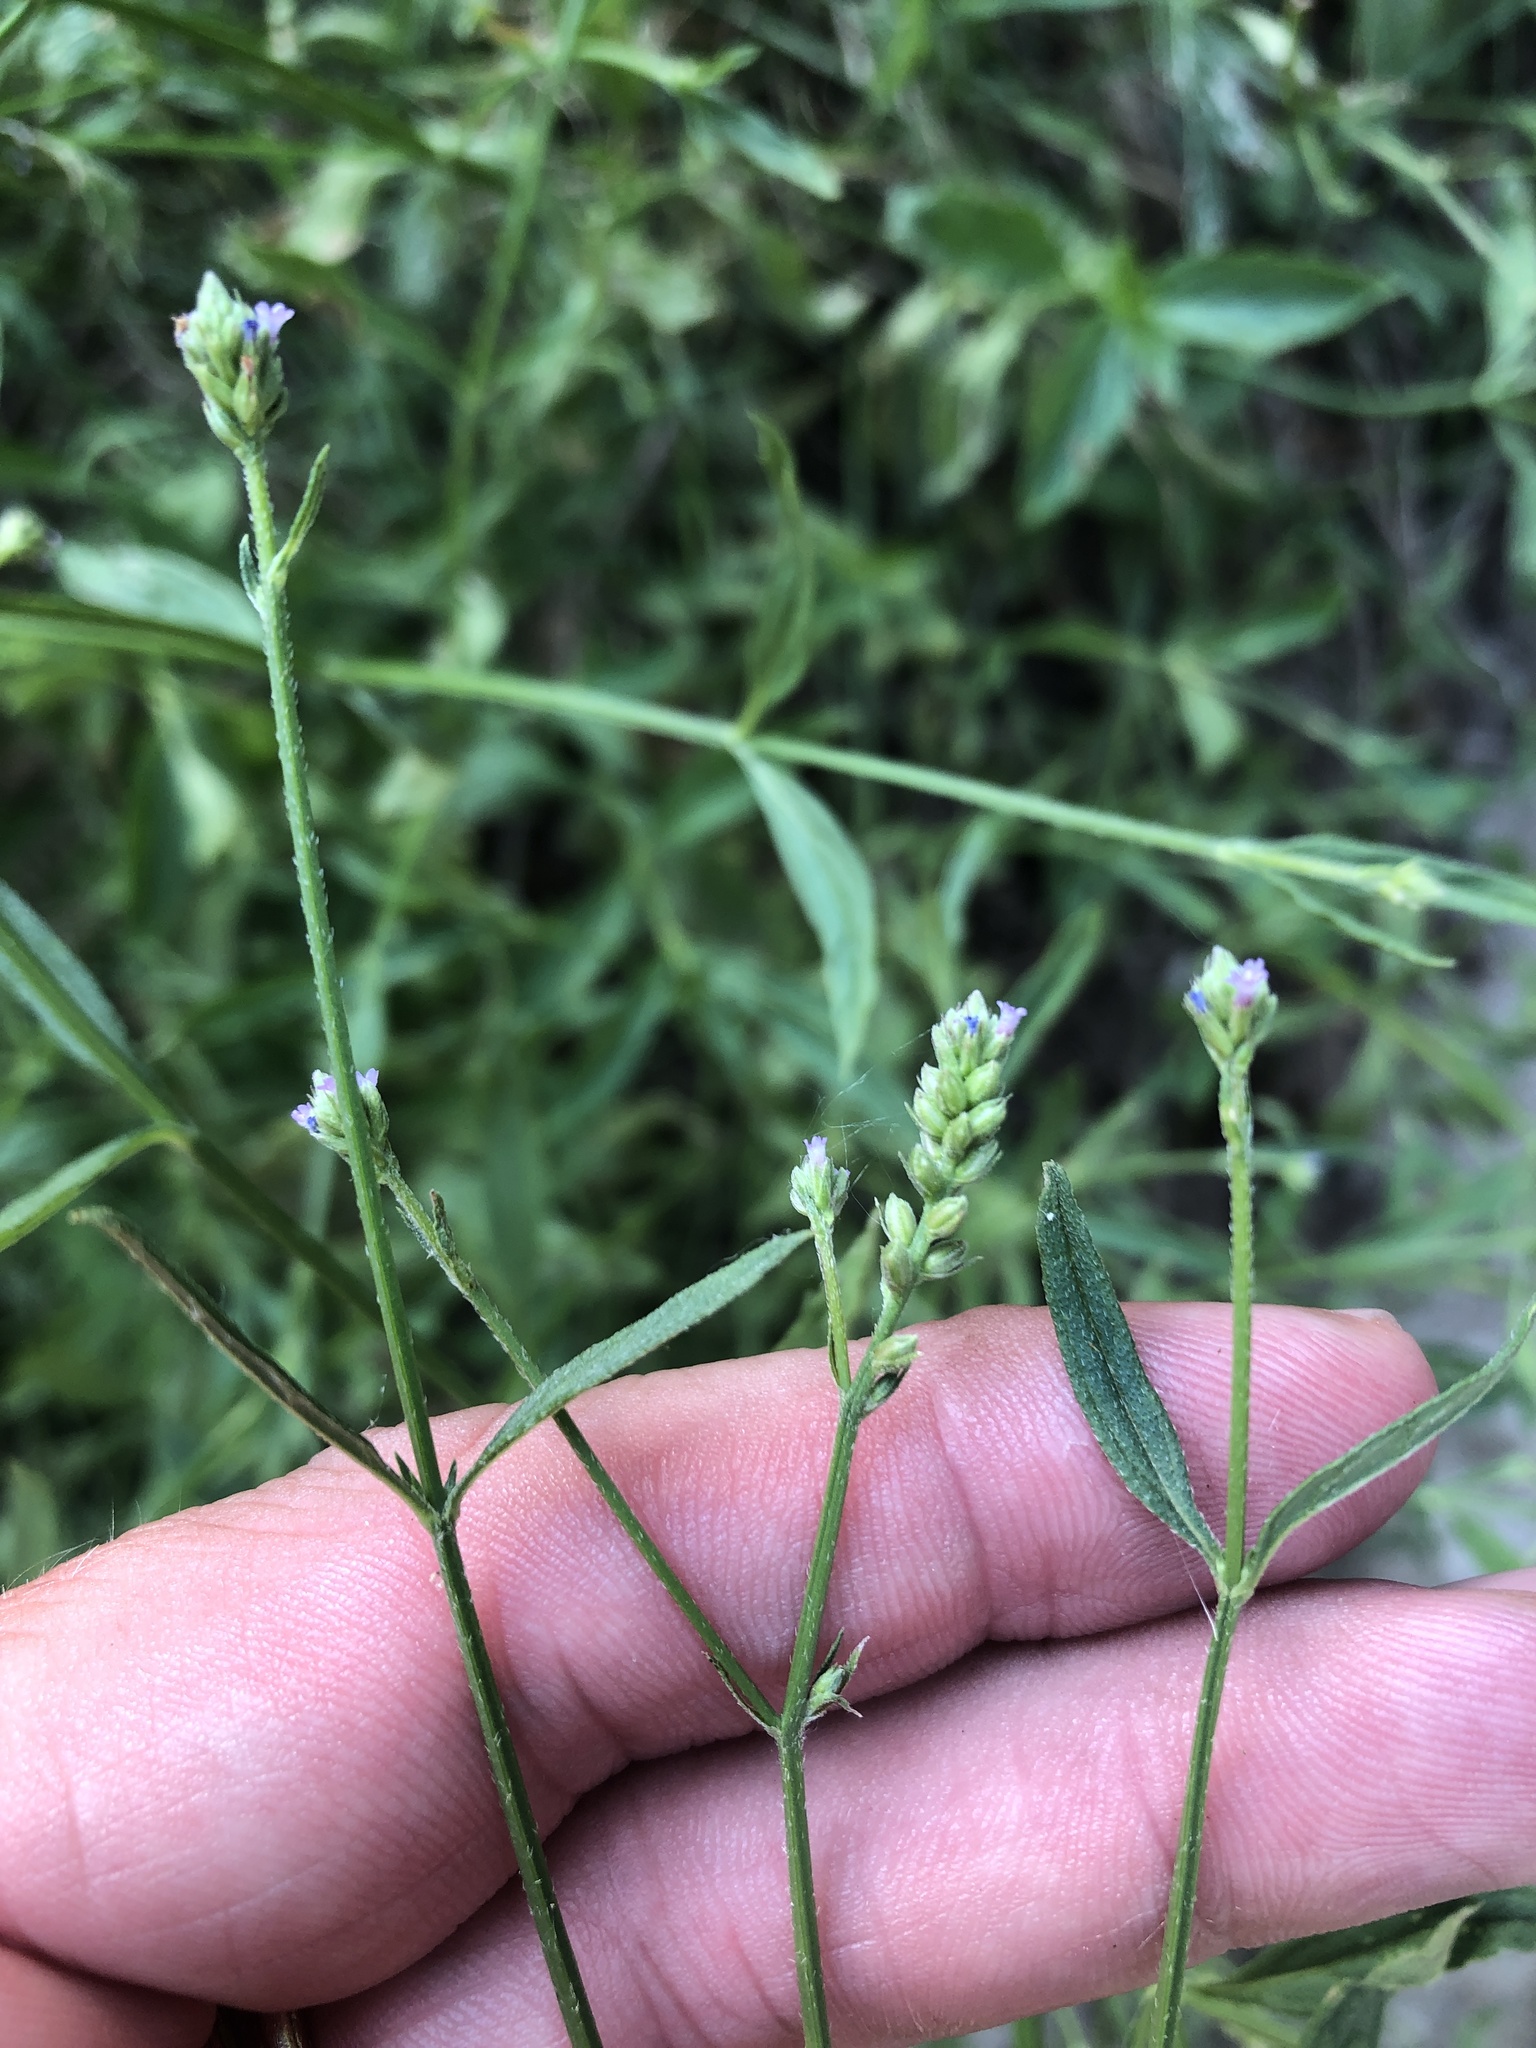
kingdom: Plantae
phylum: Tracheophyta
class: Magnoliopsida
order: Lamiales
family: Verbenaceae
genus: Verbena
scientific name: Verbena brasiliensis
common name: Brazilian vervain
